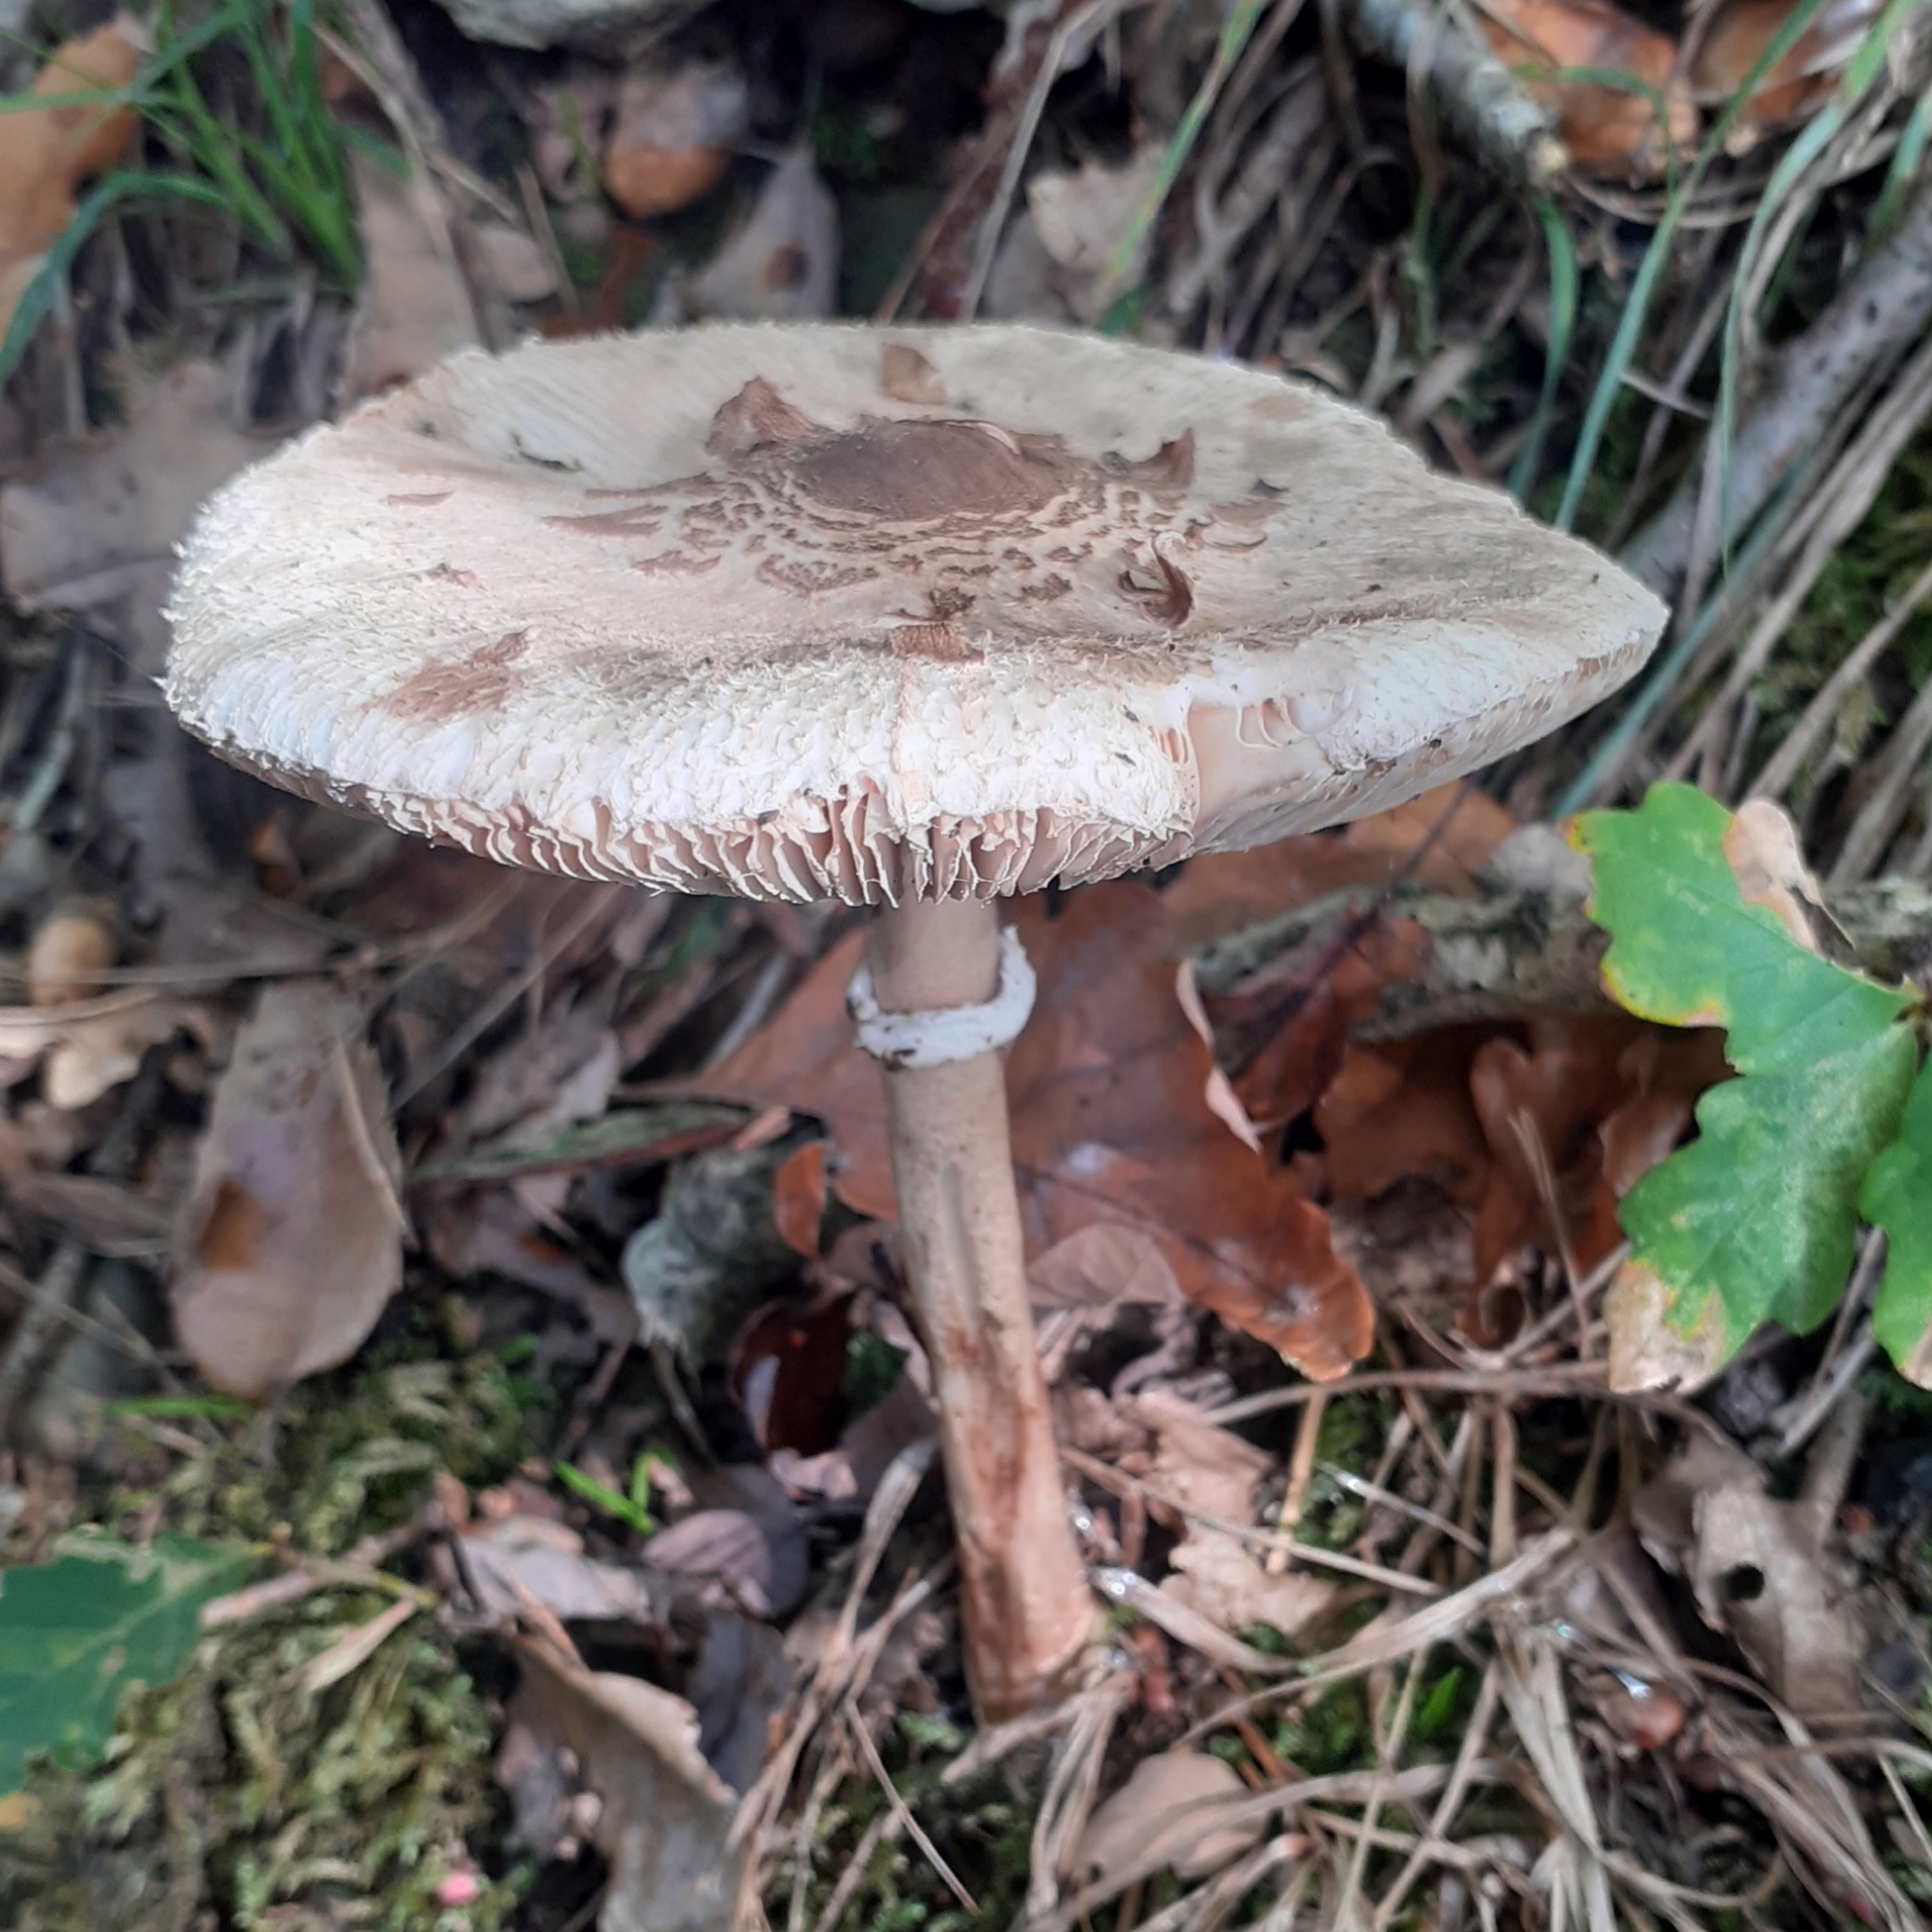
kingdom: Fungi
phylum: Basidiomycota
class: Agaricomycetes
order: Agaricales
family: Agaricaceae
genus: Macrolepiota
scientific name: Macrolepiota procera
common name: Parasol
